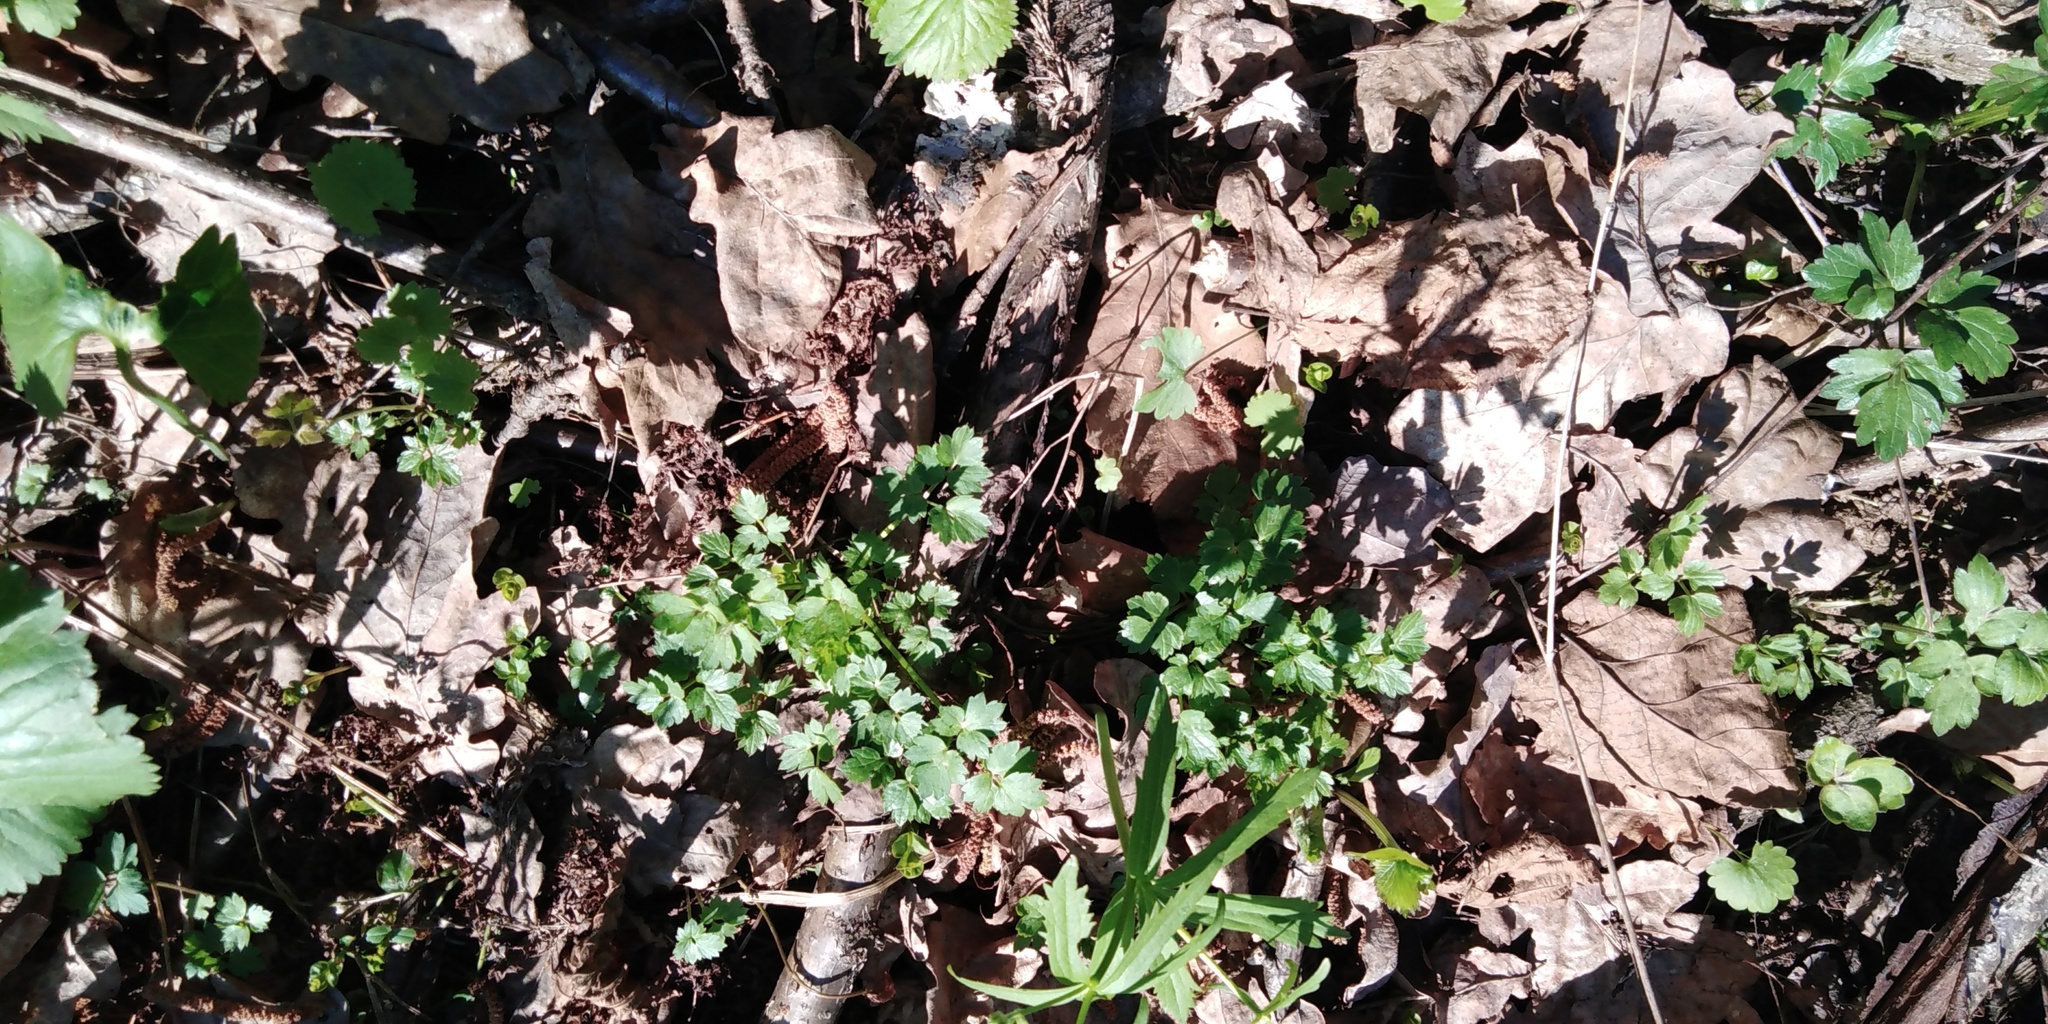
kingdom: Plantae
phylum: Tracheophyta
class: Magnoliopsida
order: Ranunculales
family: Ranunculaceae
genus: Ranunculus
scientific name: Ranunculus repens
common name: Creeping buttercup
